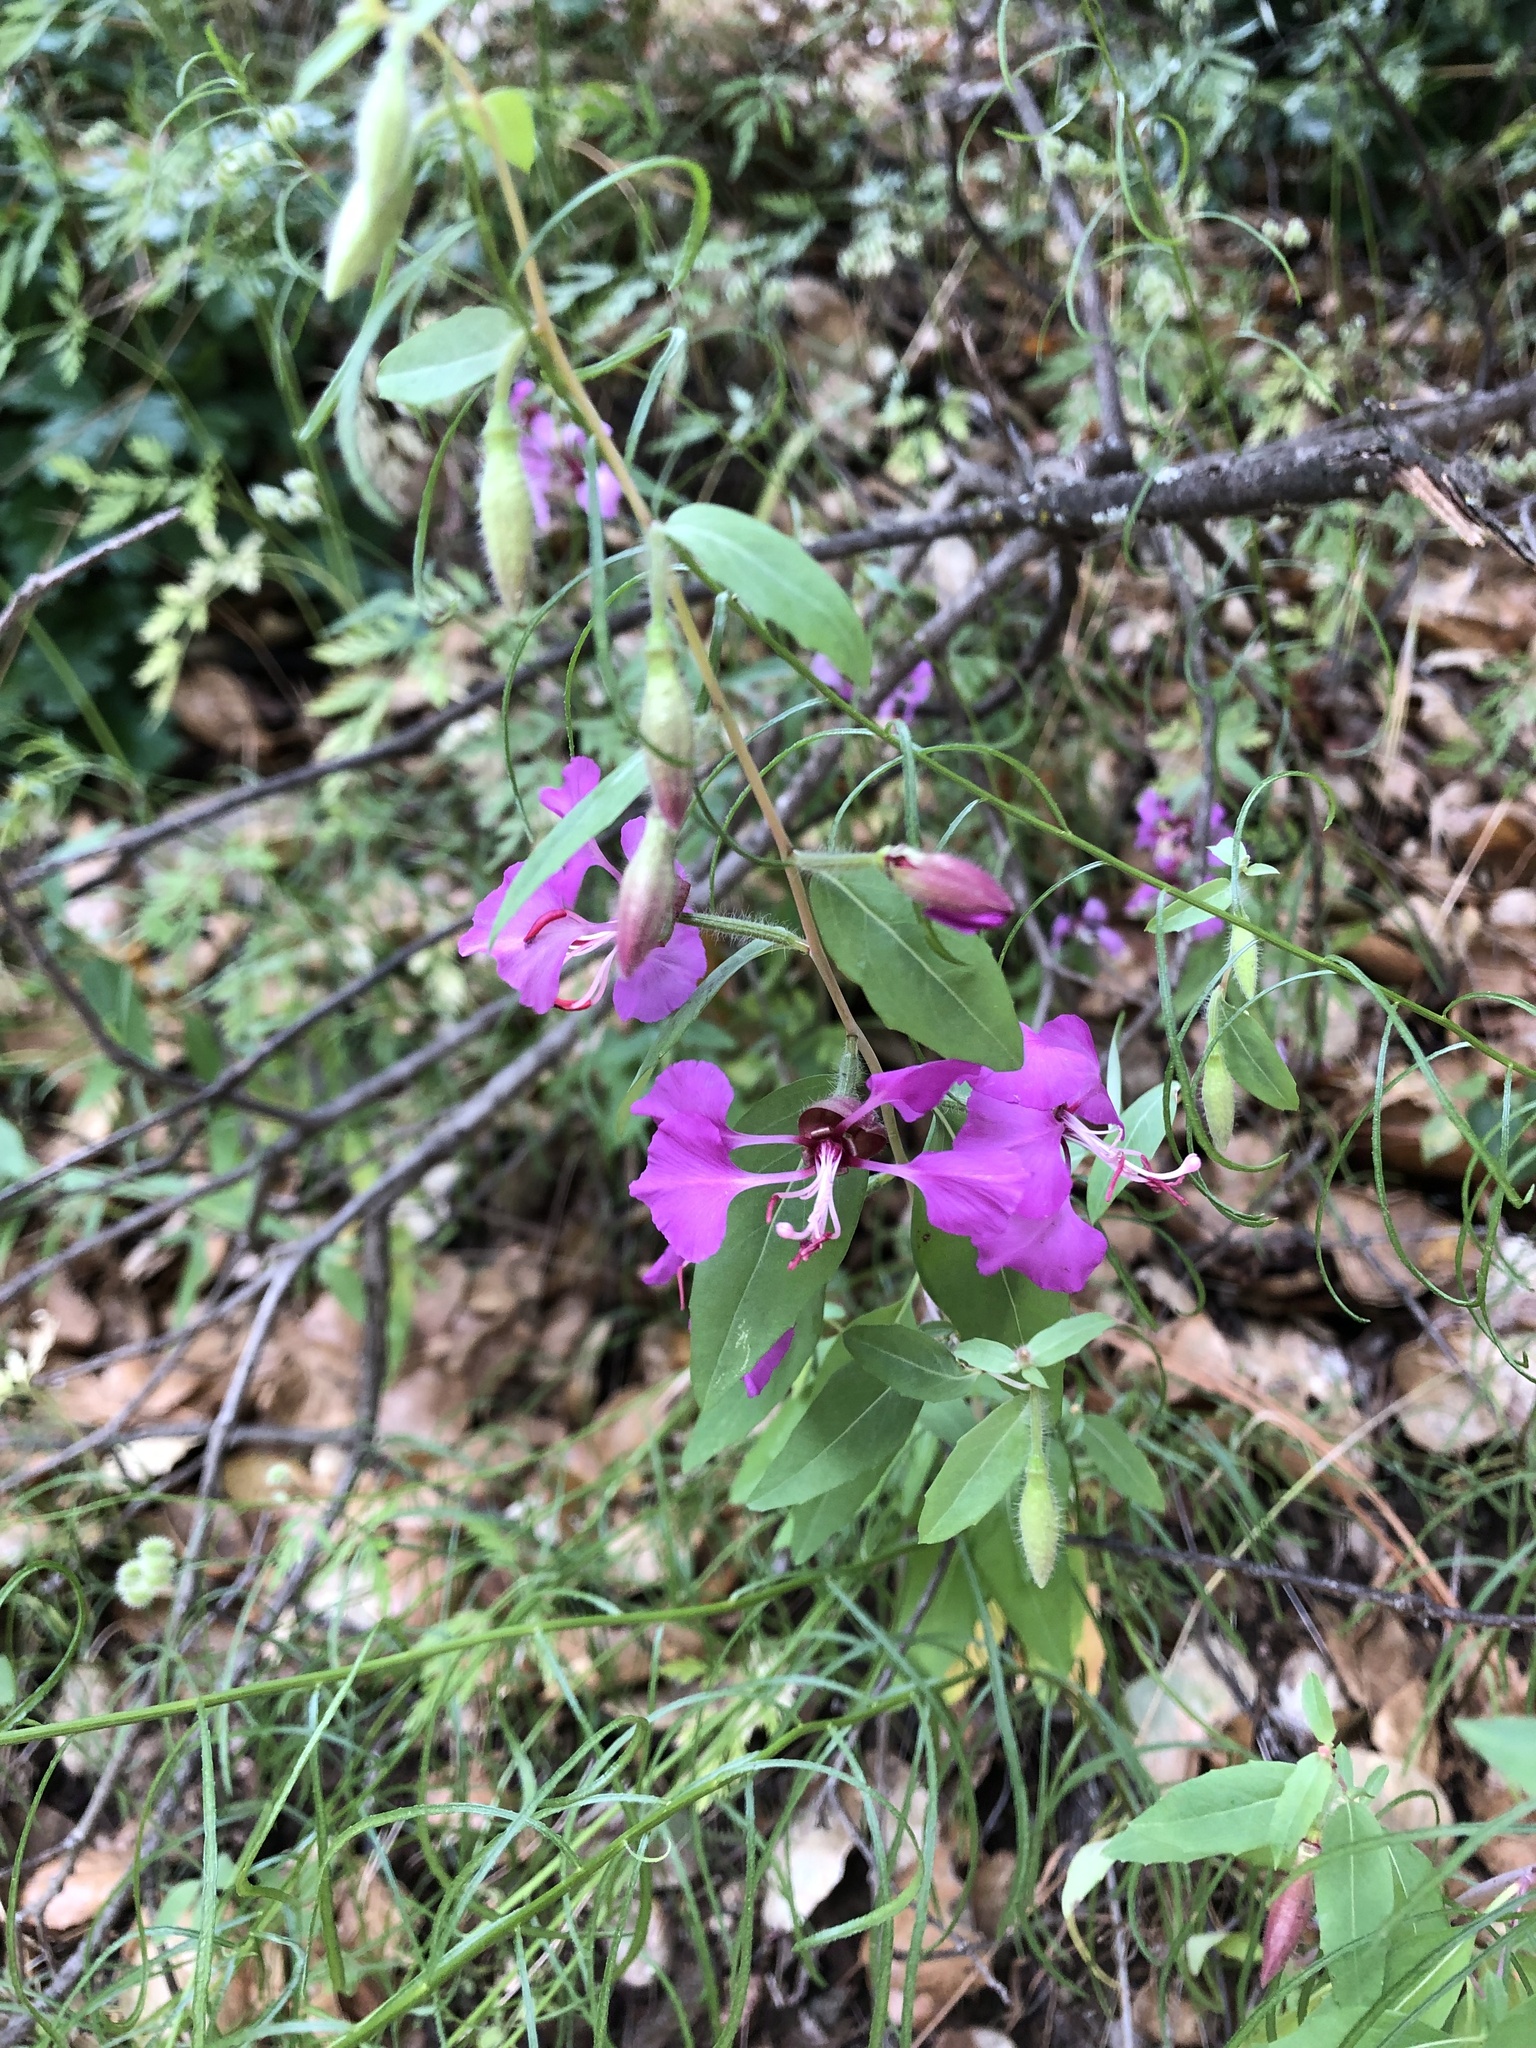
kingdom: Plantae
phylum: Tracheophyta
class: Magnoliopsida
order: Myrtales
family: Onagraceae
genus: Clarkia
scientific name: Clarkia unguiculata
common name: Clarkia
